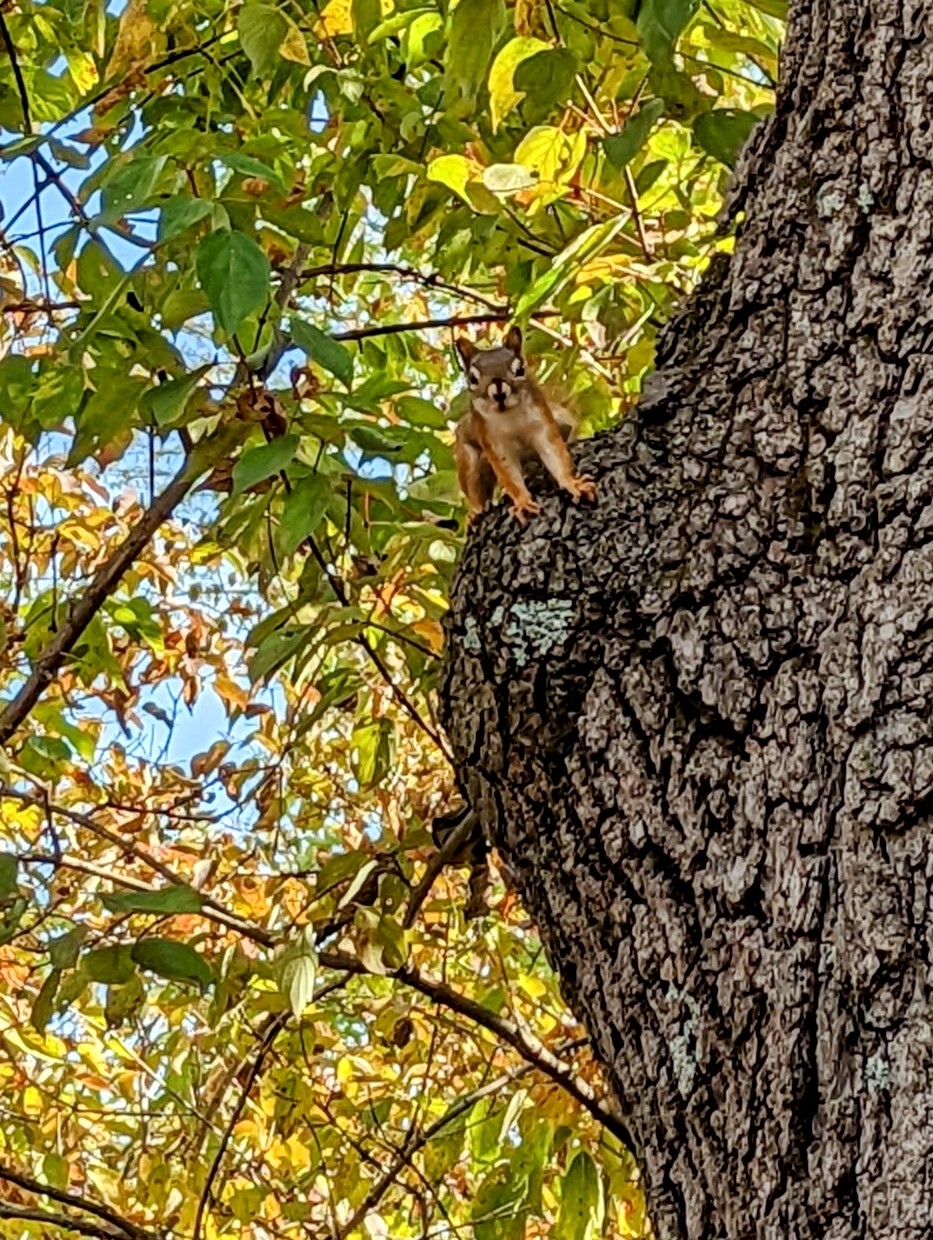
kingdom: Animalia
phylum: Chordata
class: Mammalia
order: Rodentia
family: Sciuridae
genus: Tamiasciurus
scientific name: Tamiasciurus hudsonicus
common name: Red squirrel
